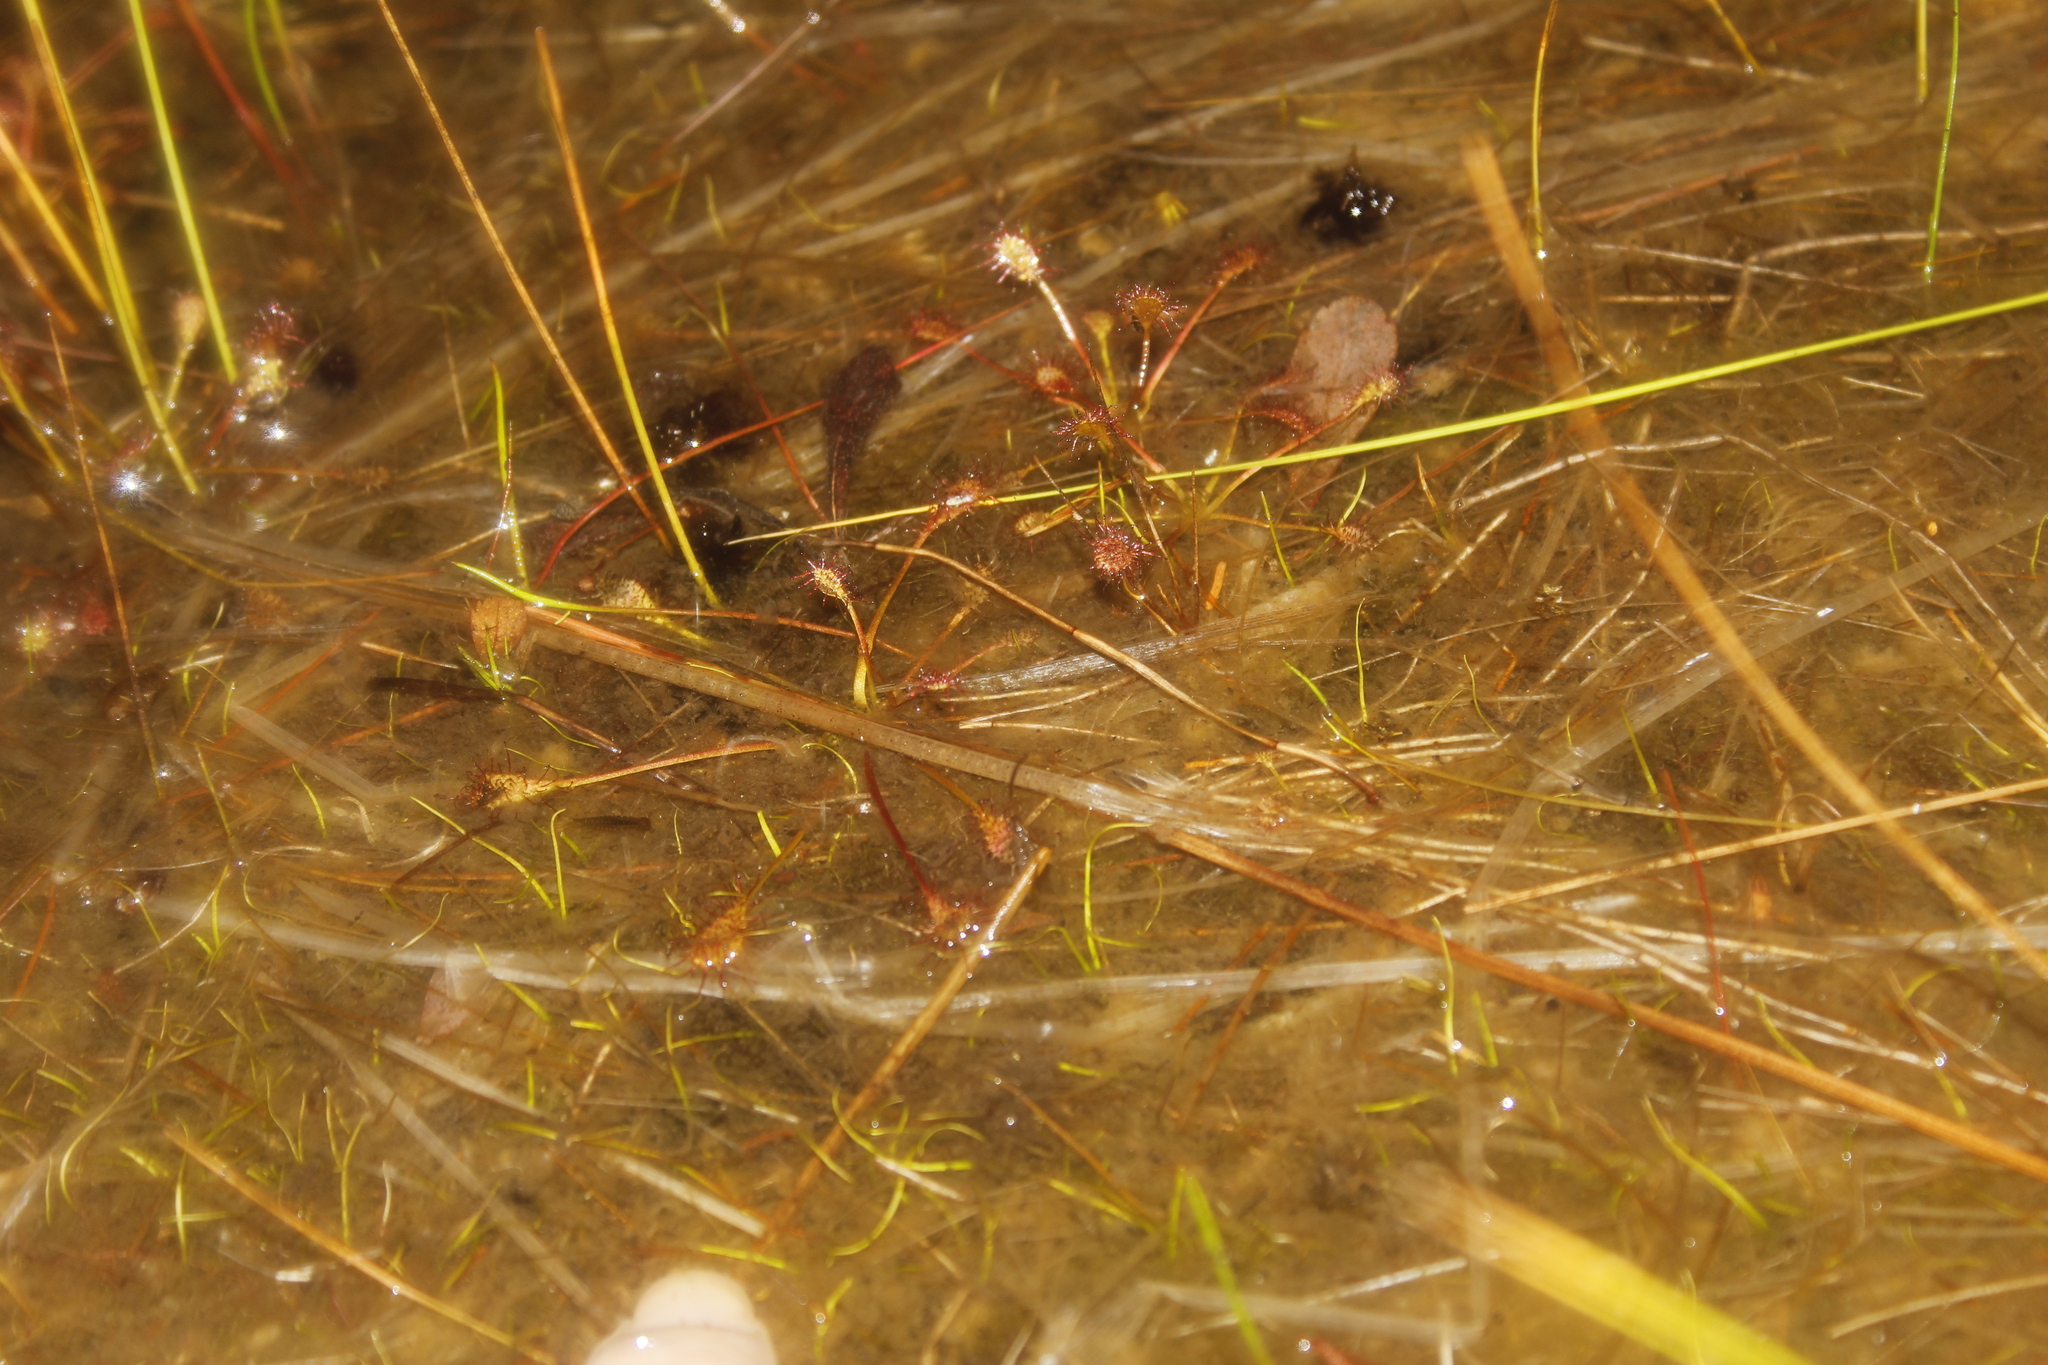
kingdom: Plantae
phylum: Tracheophyta
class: Magnoliopsida
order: Caryophyllales
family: Droseraceae
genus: Drosera
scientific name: Drosera intermedia
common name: Oblong-leaved sundew
